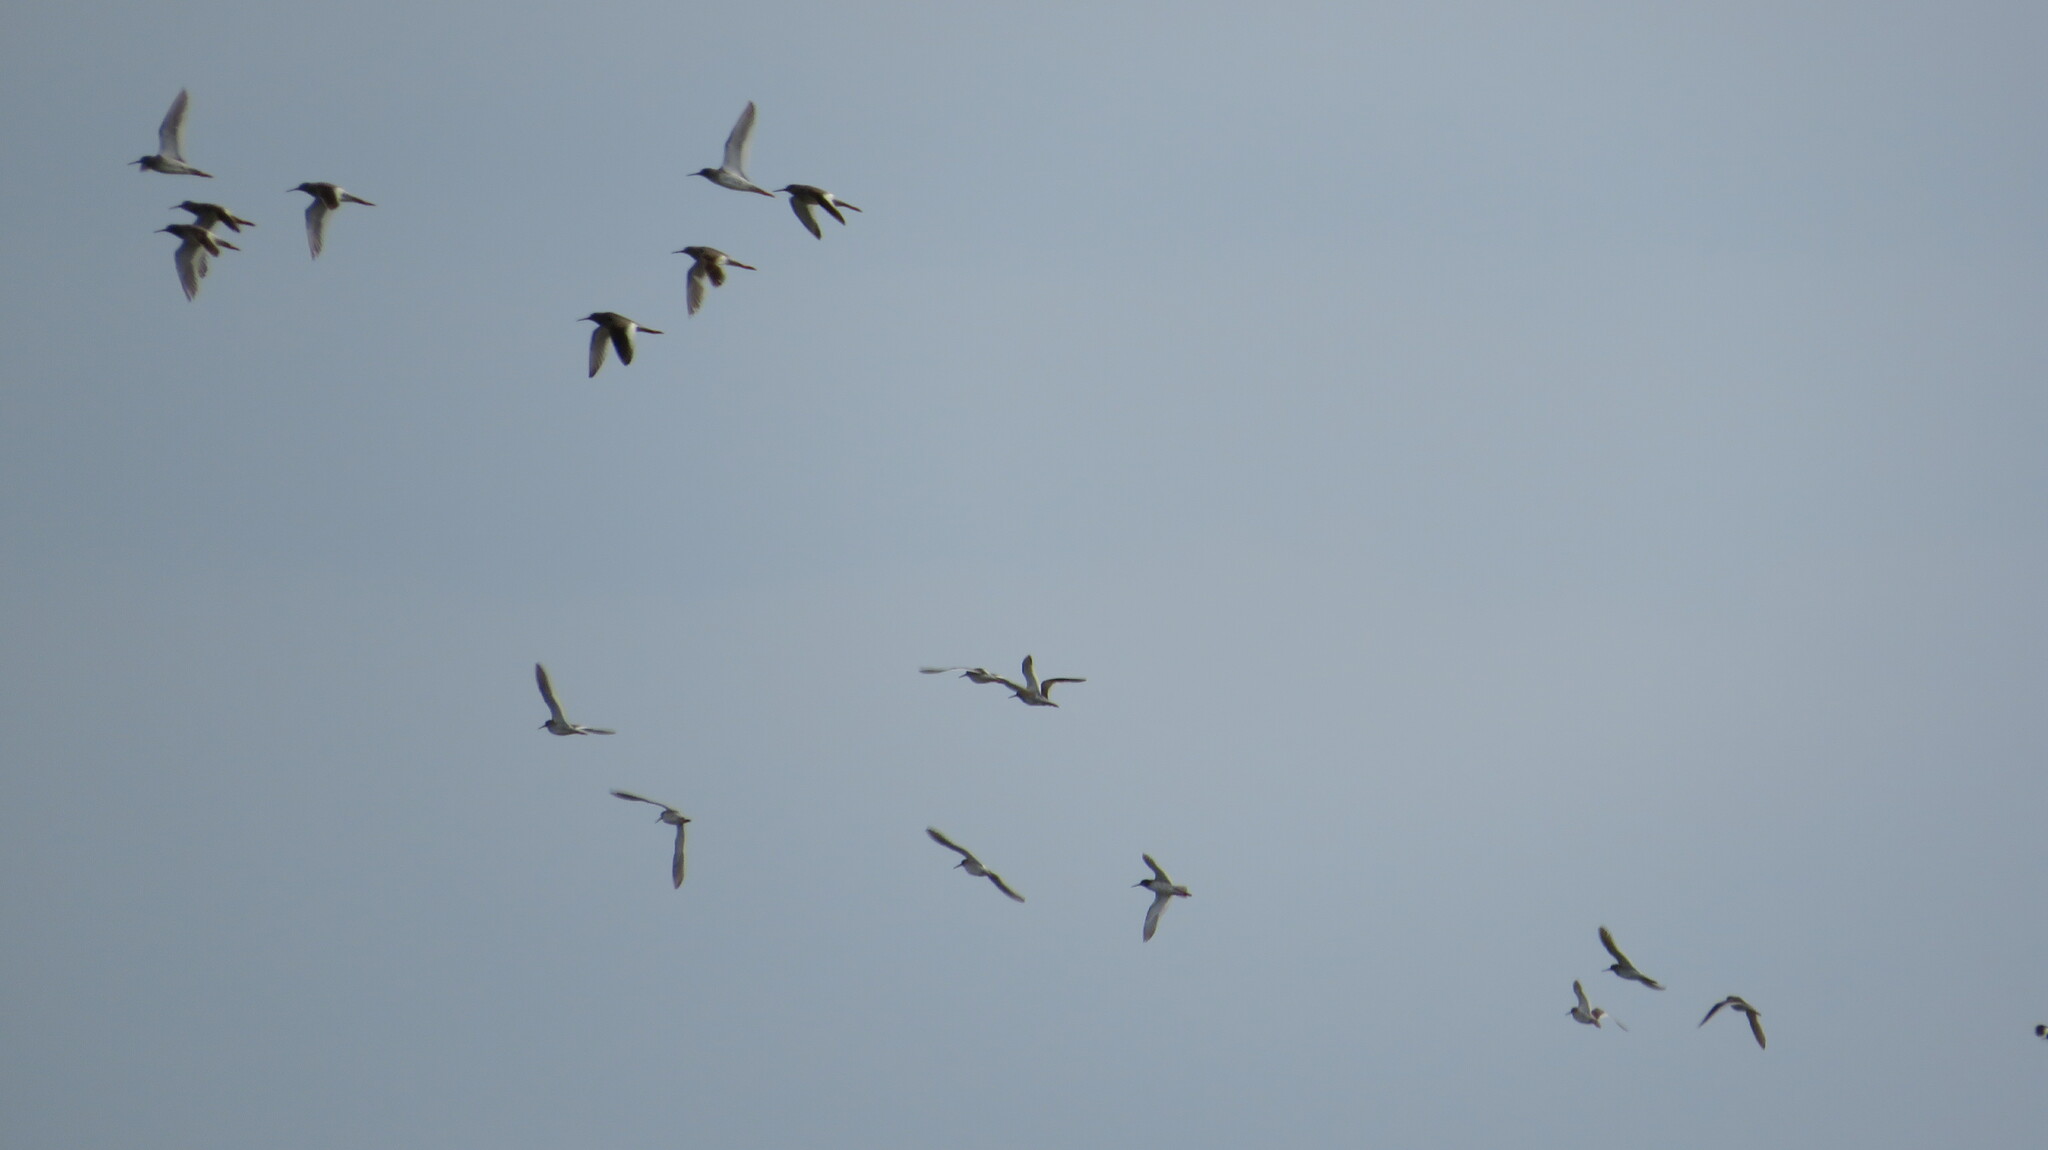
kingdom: Animalia
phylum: Chordata
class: Aves
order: Charadriiformes
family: Scolopacidae
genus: Tringa
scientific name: Tringa totanus
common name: Common redshank
